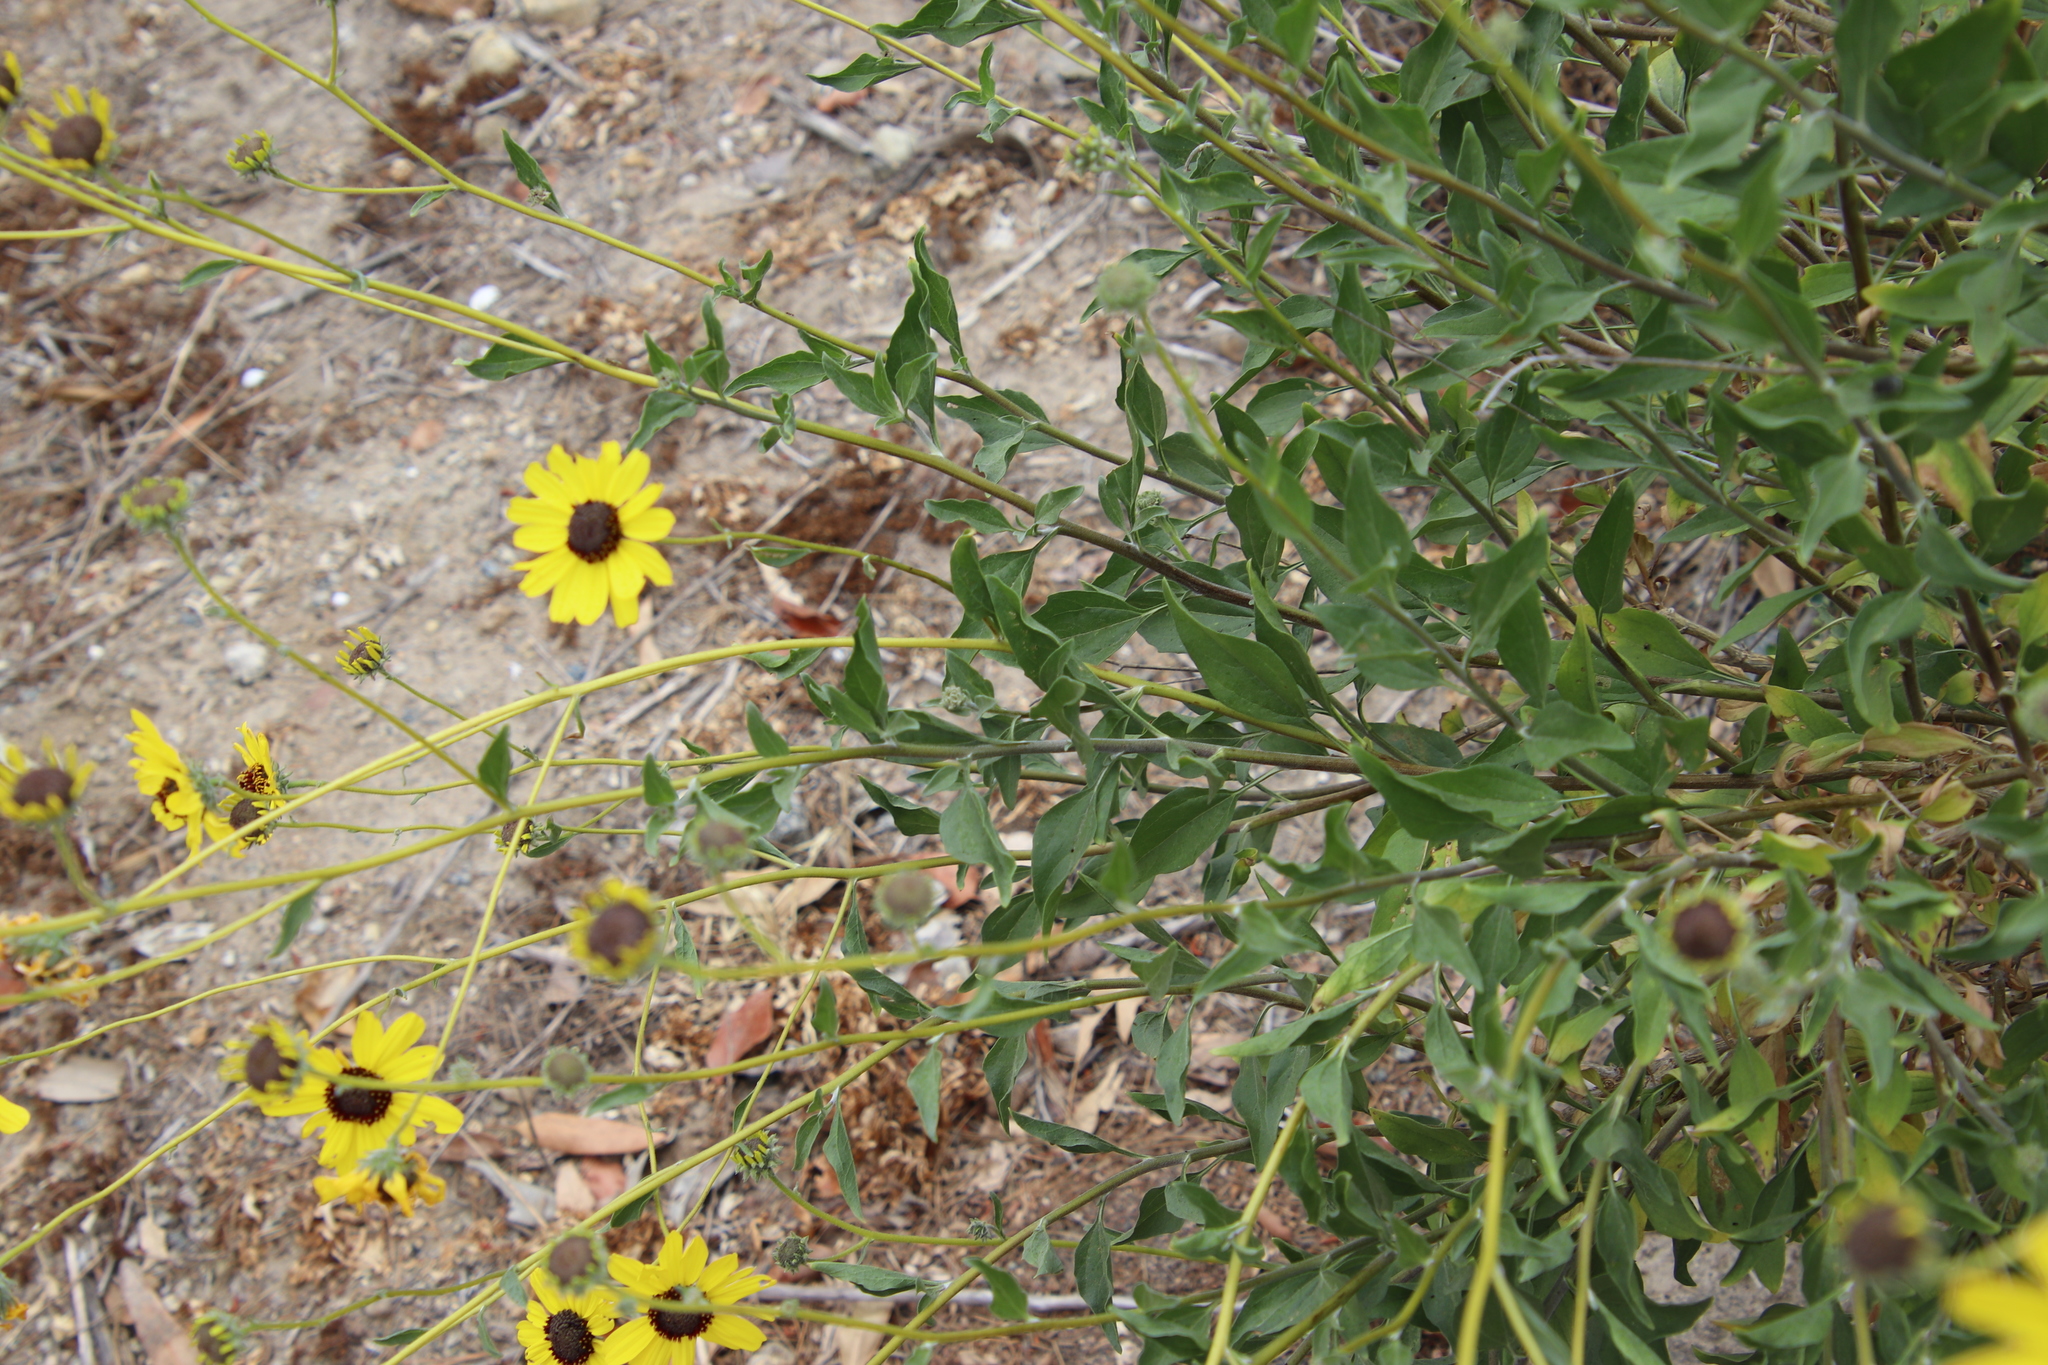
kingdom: Plantae
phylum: Tracheophyta
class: Magnoliopsida
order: Asterales
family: Asteraceae
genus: Encelia
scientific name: Encelia californica
